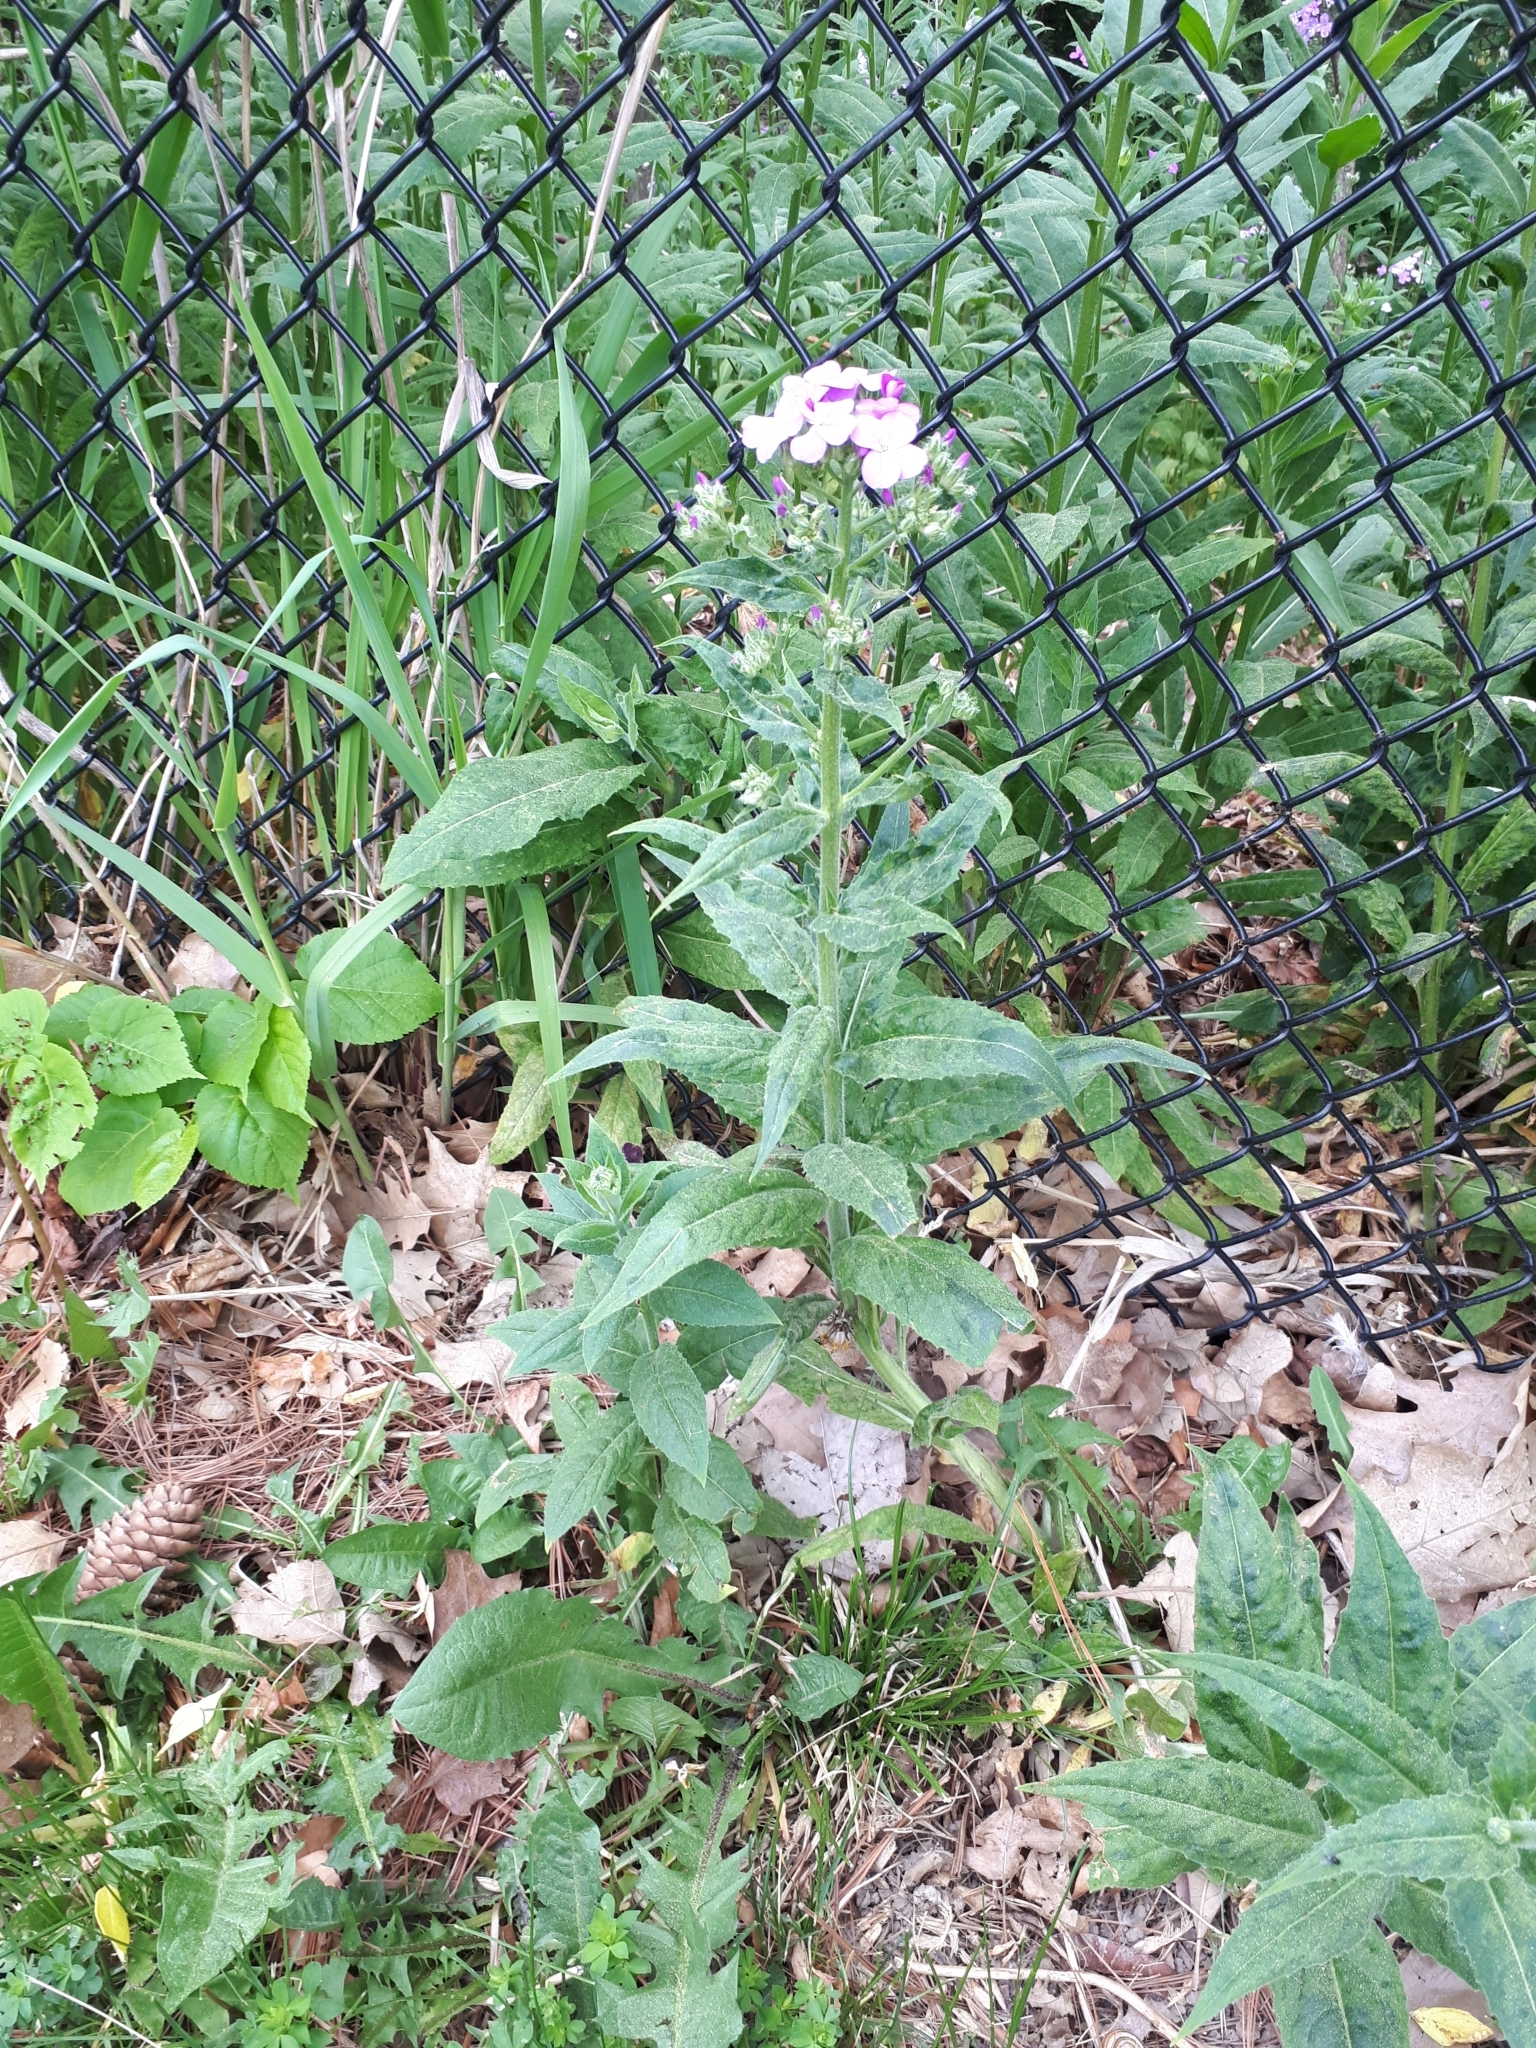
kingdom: Plantae
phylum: Tracheophyta
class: Magnoliopsida
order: Brassicales
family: Brassicaceae
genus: Hesperis
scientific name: Hesperis matronalis
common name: Dame's-violet
